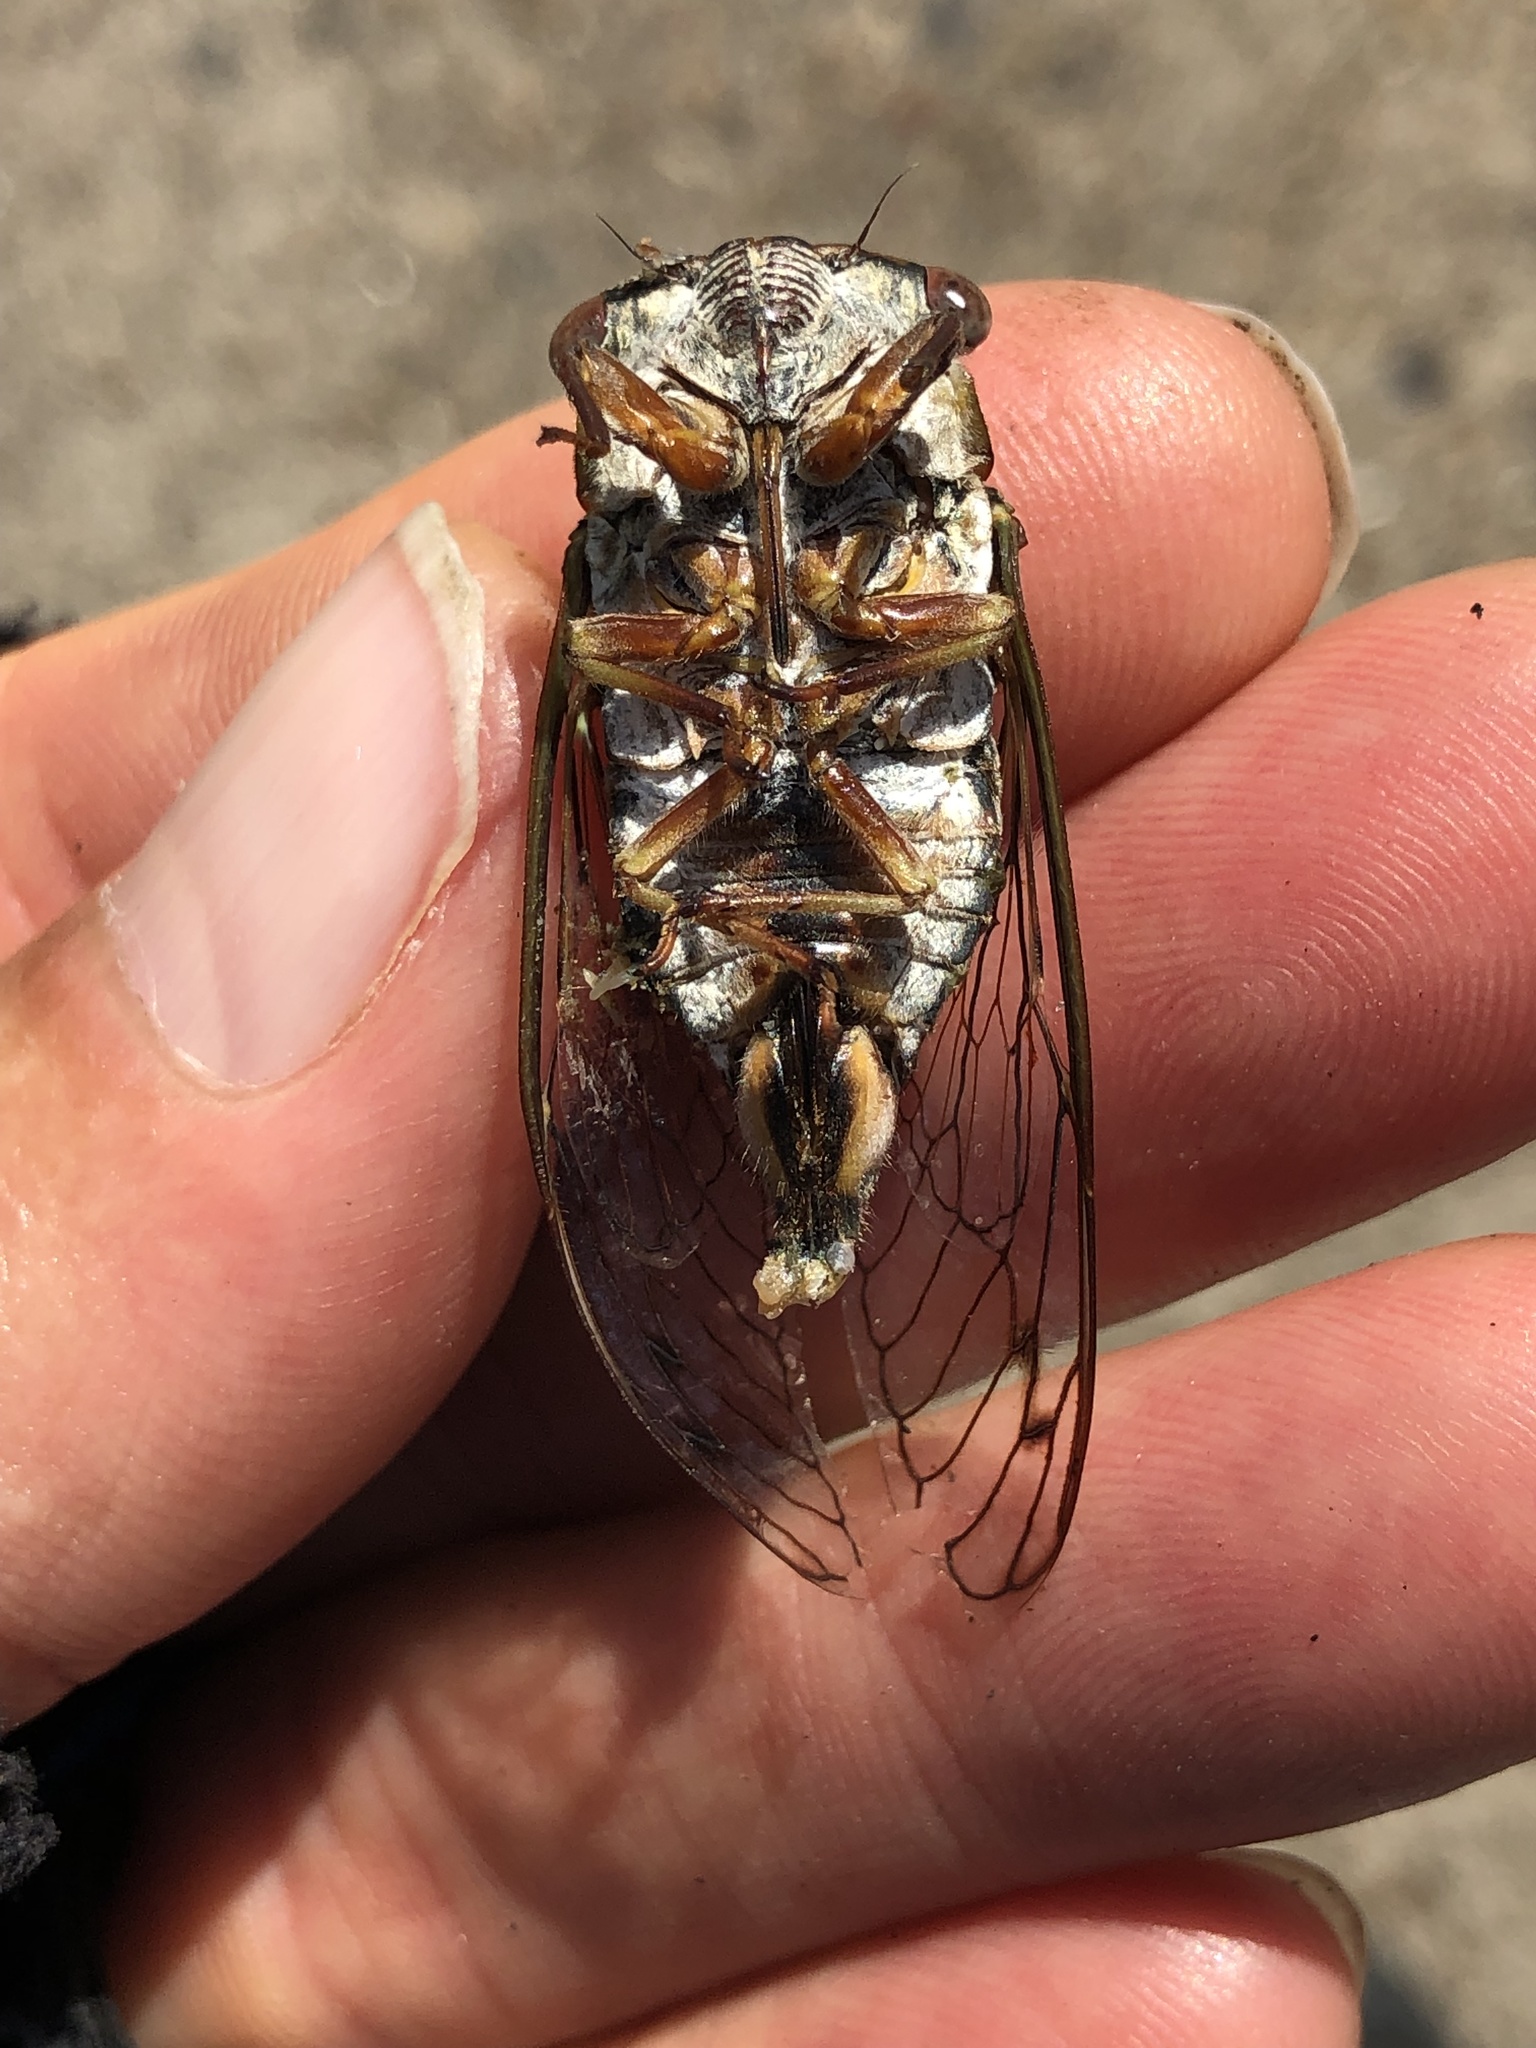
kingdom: Animalia
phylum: Arthropoda
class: Insecta
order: Hemiptera
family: Cicadidae
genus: Neotibicen
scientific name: Neotibicen davisi
